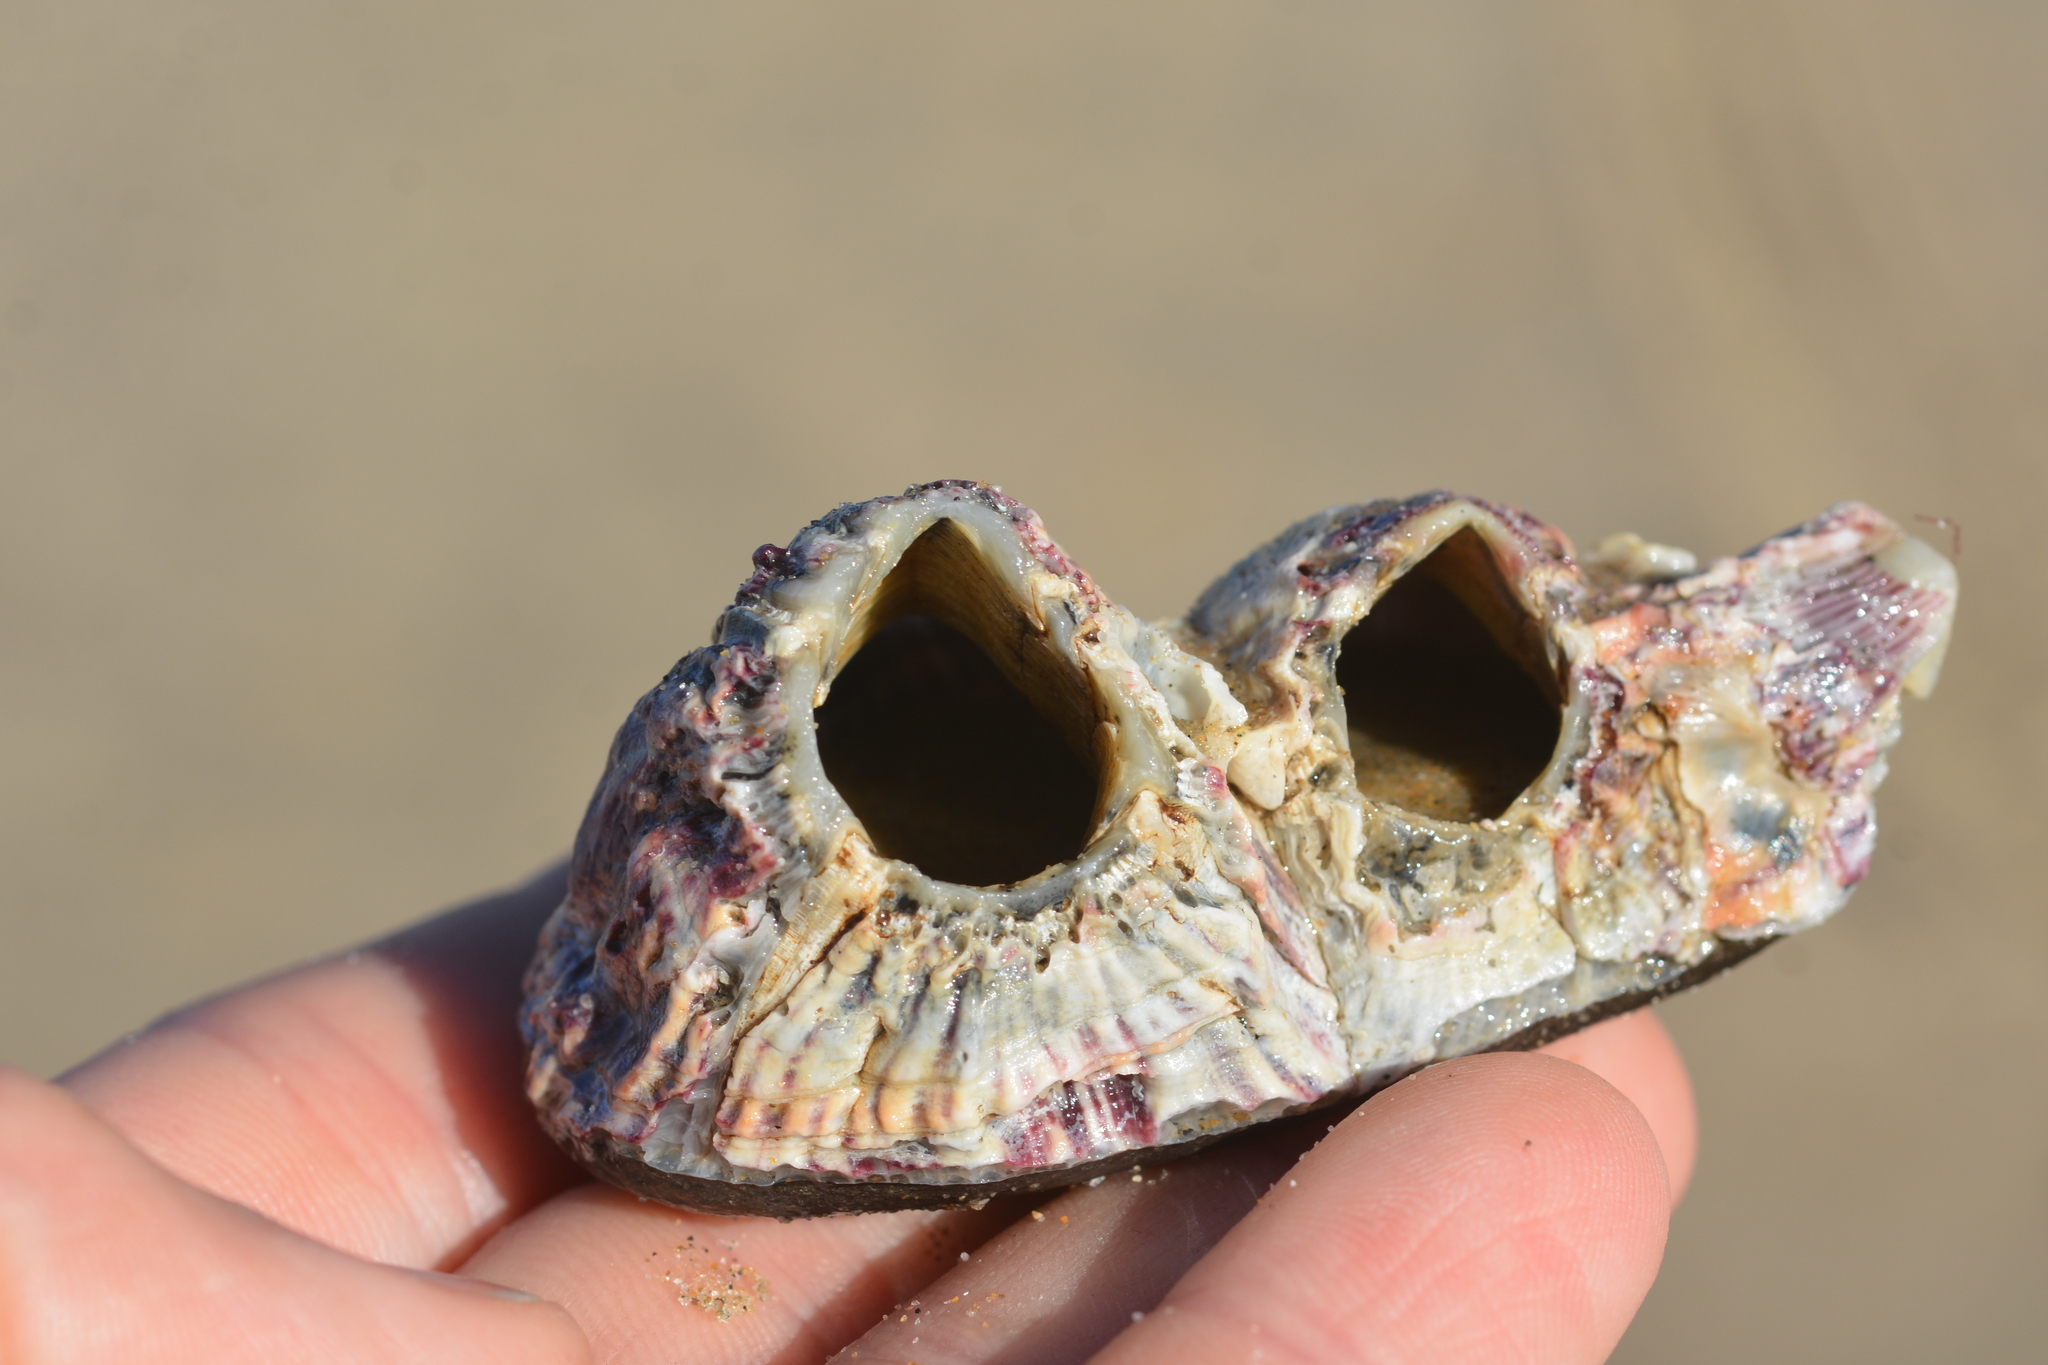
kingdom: Animalia
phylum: Arthropoda
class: Maxillopoda
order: Sessilia
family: Balanidae
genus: Menesiniella
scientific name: Menesiniella regalis
